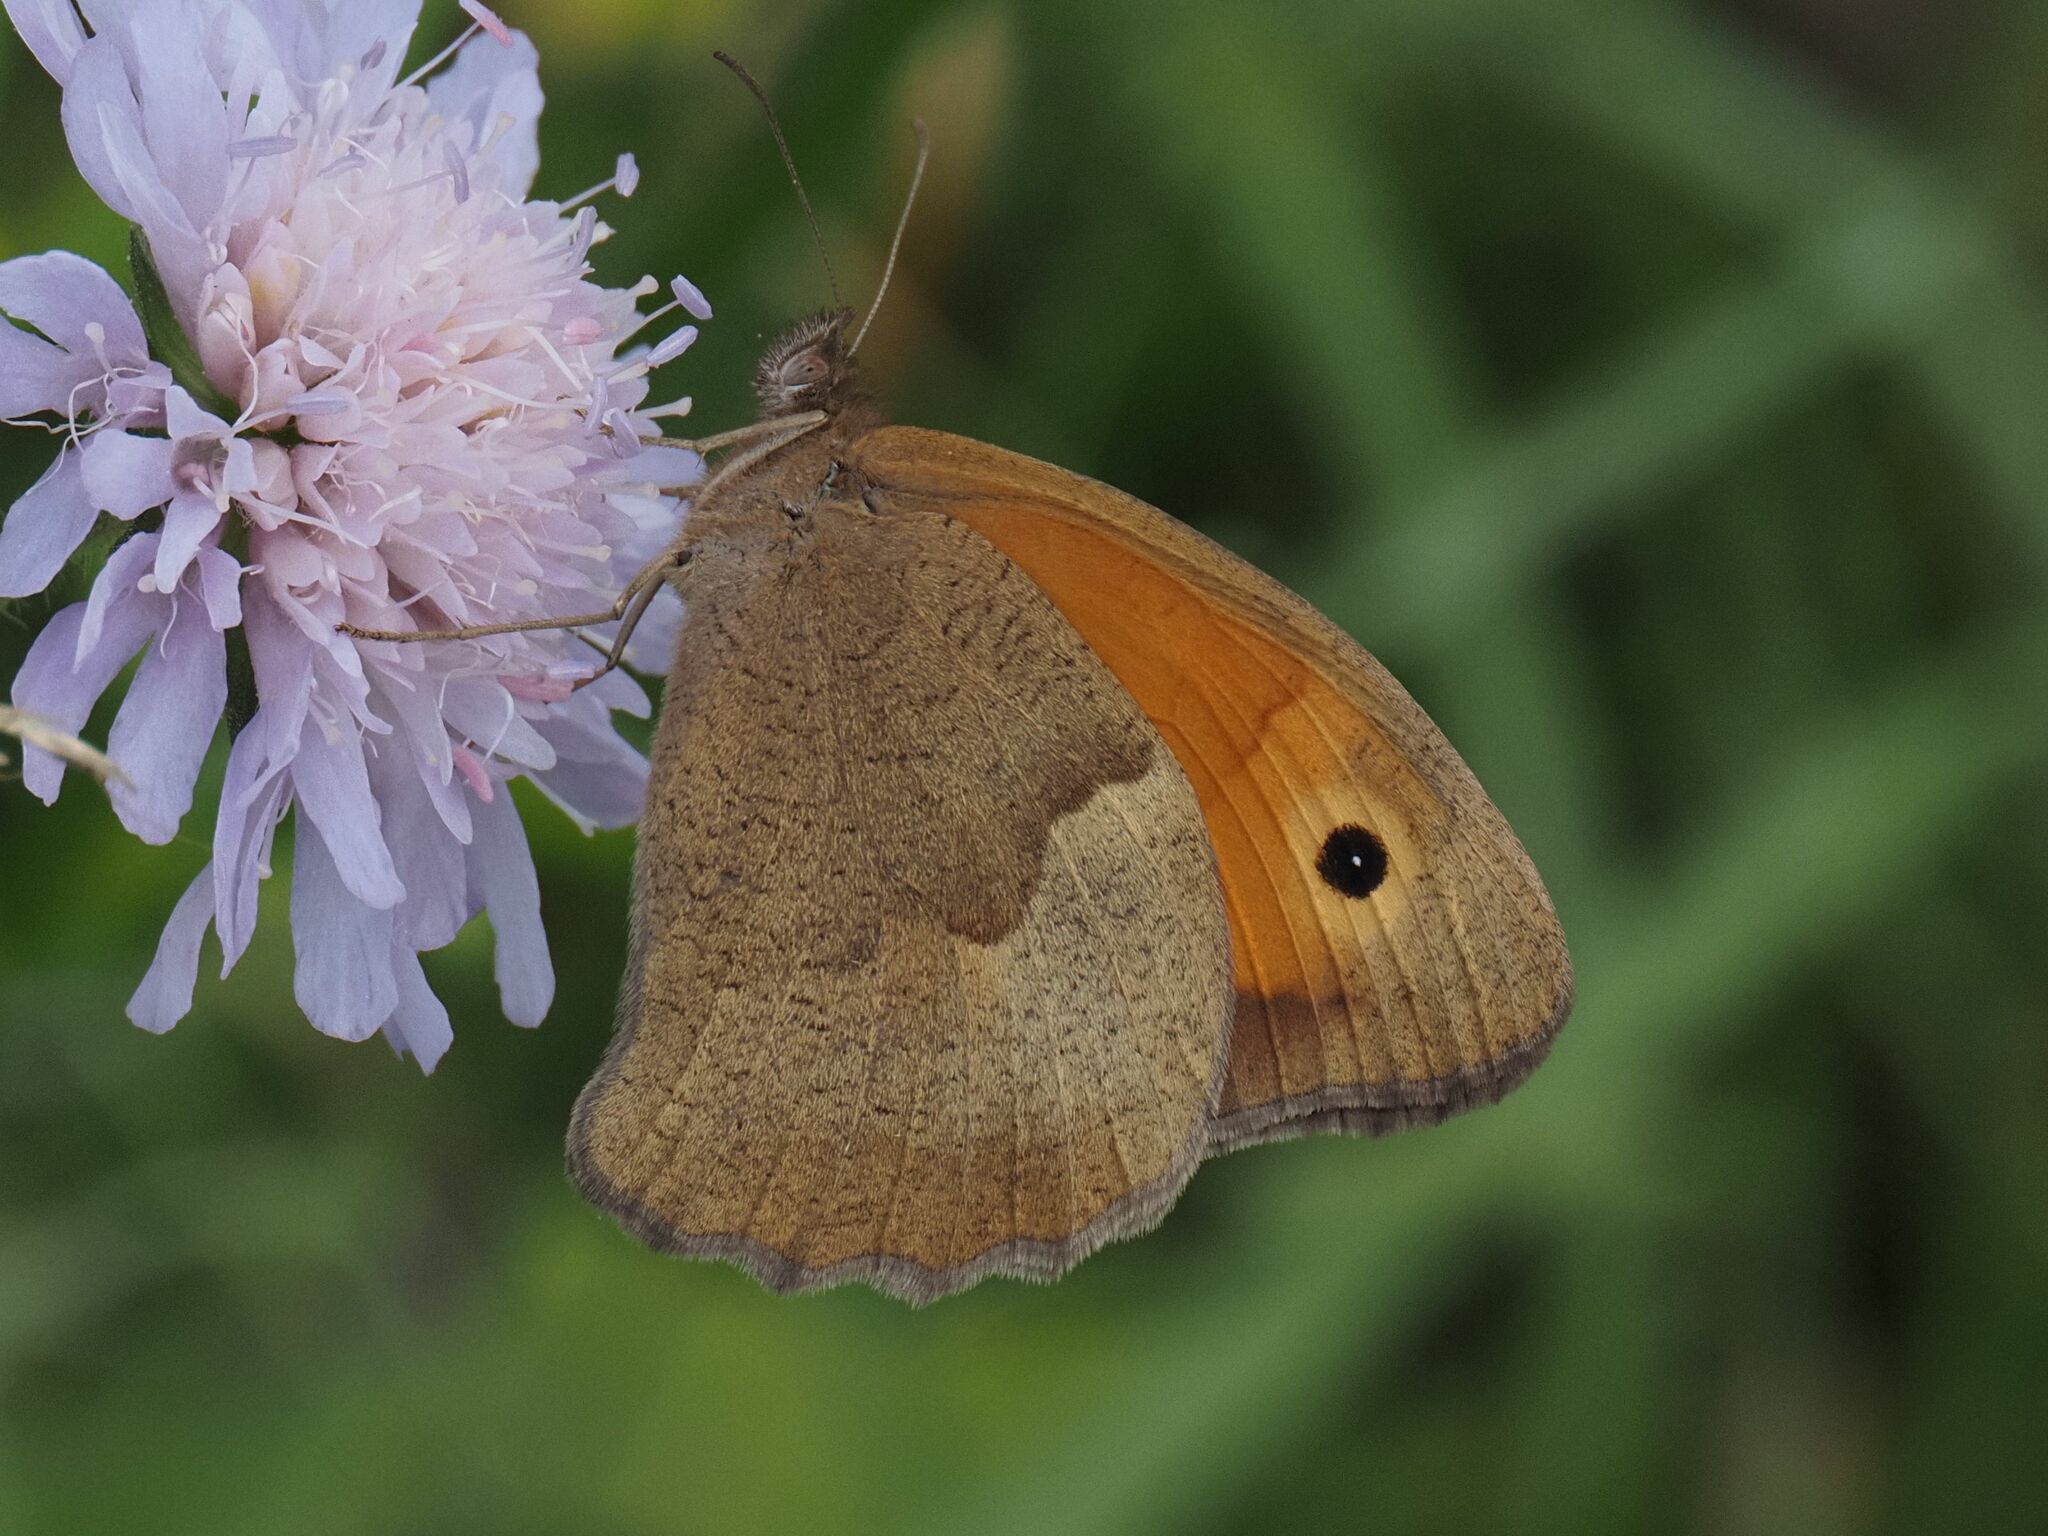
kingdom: Animalia
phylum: Arthropoda
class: Insecta
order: Lepidoptera
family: Nymphalidae
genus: Maniola
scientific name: Maniola jurtina
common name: Meadow brown
